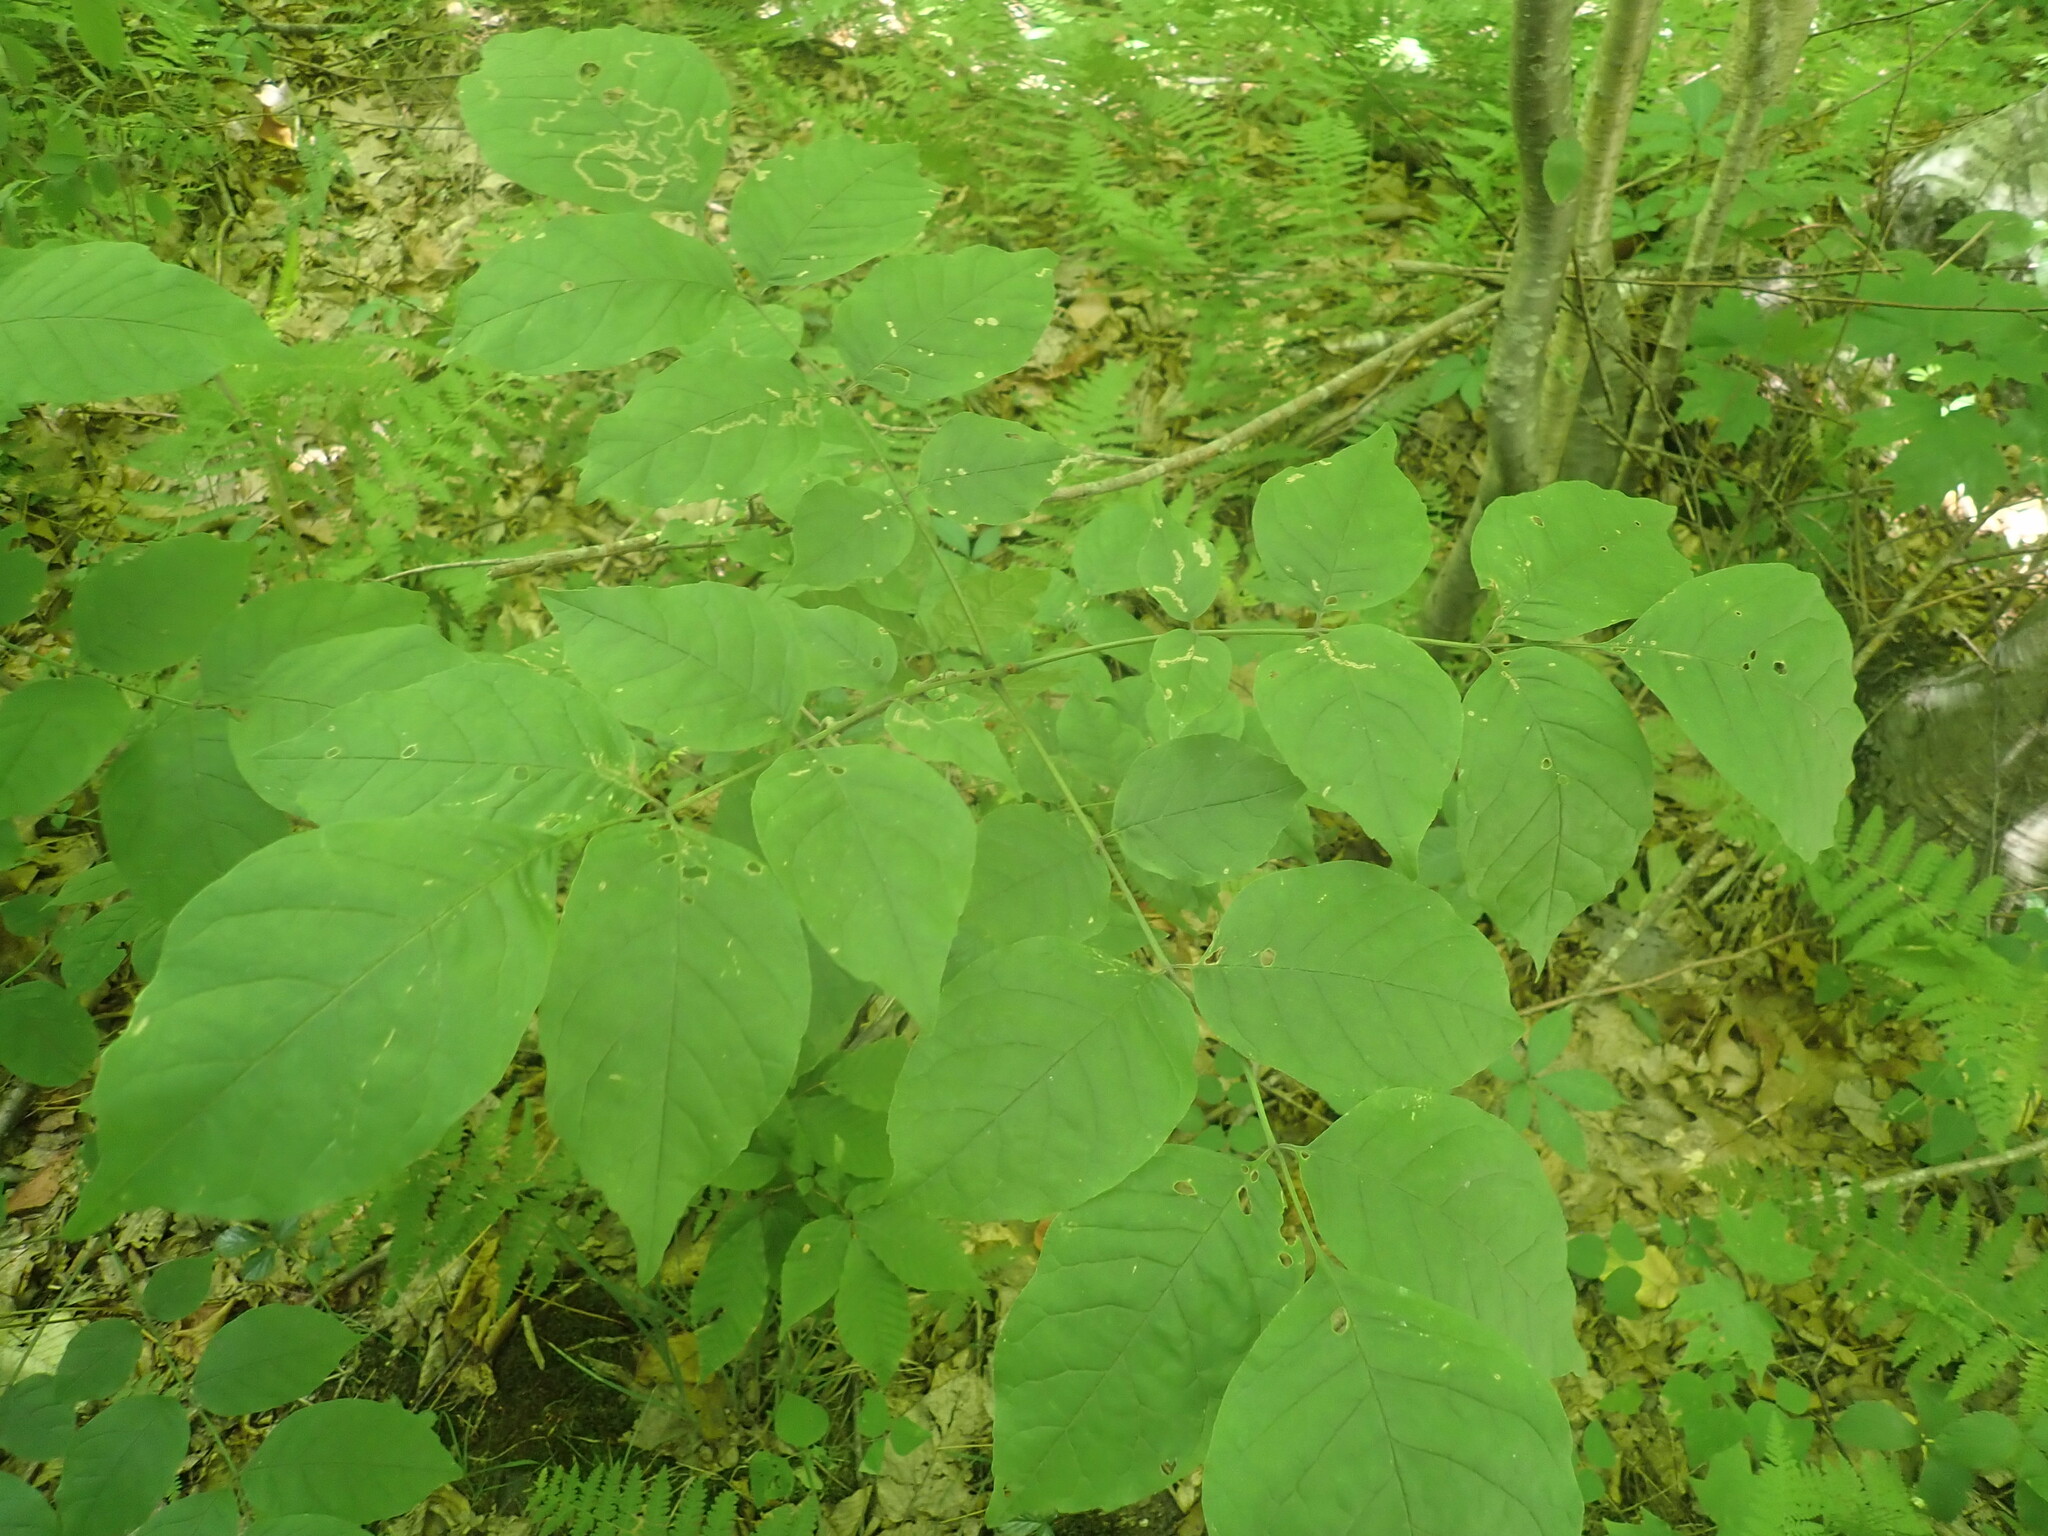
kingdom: Plantae
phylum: Tracheophyta
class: Magnoliopsida
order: Lamiales
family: Oleaceae
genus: Fraxinus
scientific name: Fraxinus
